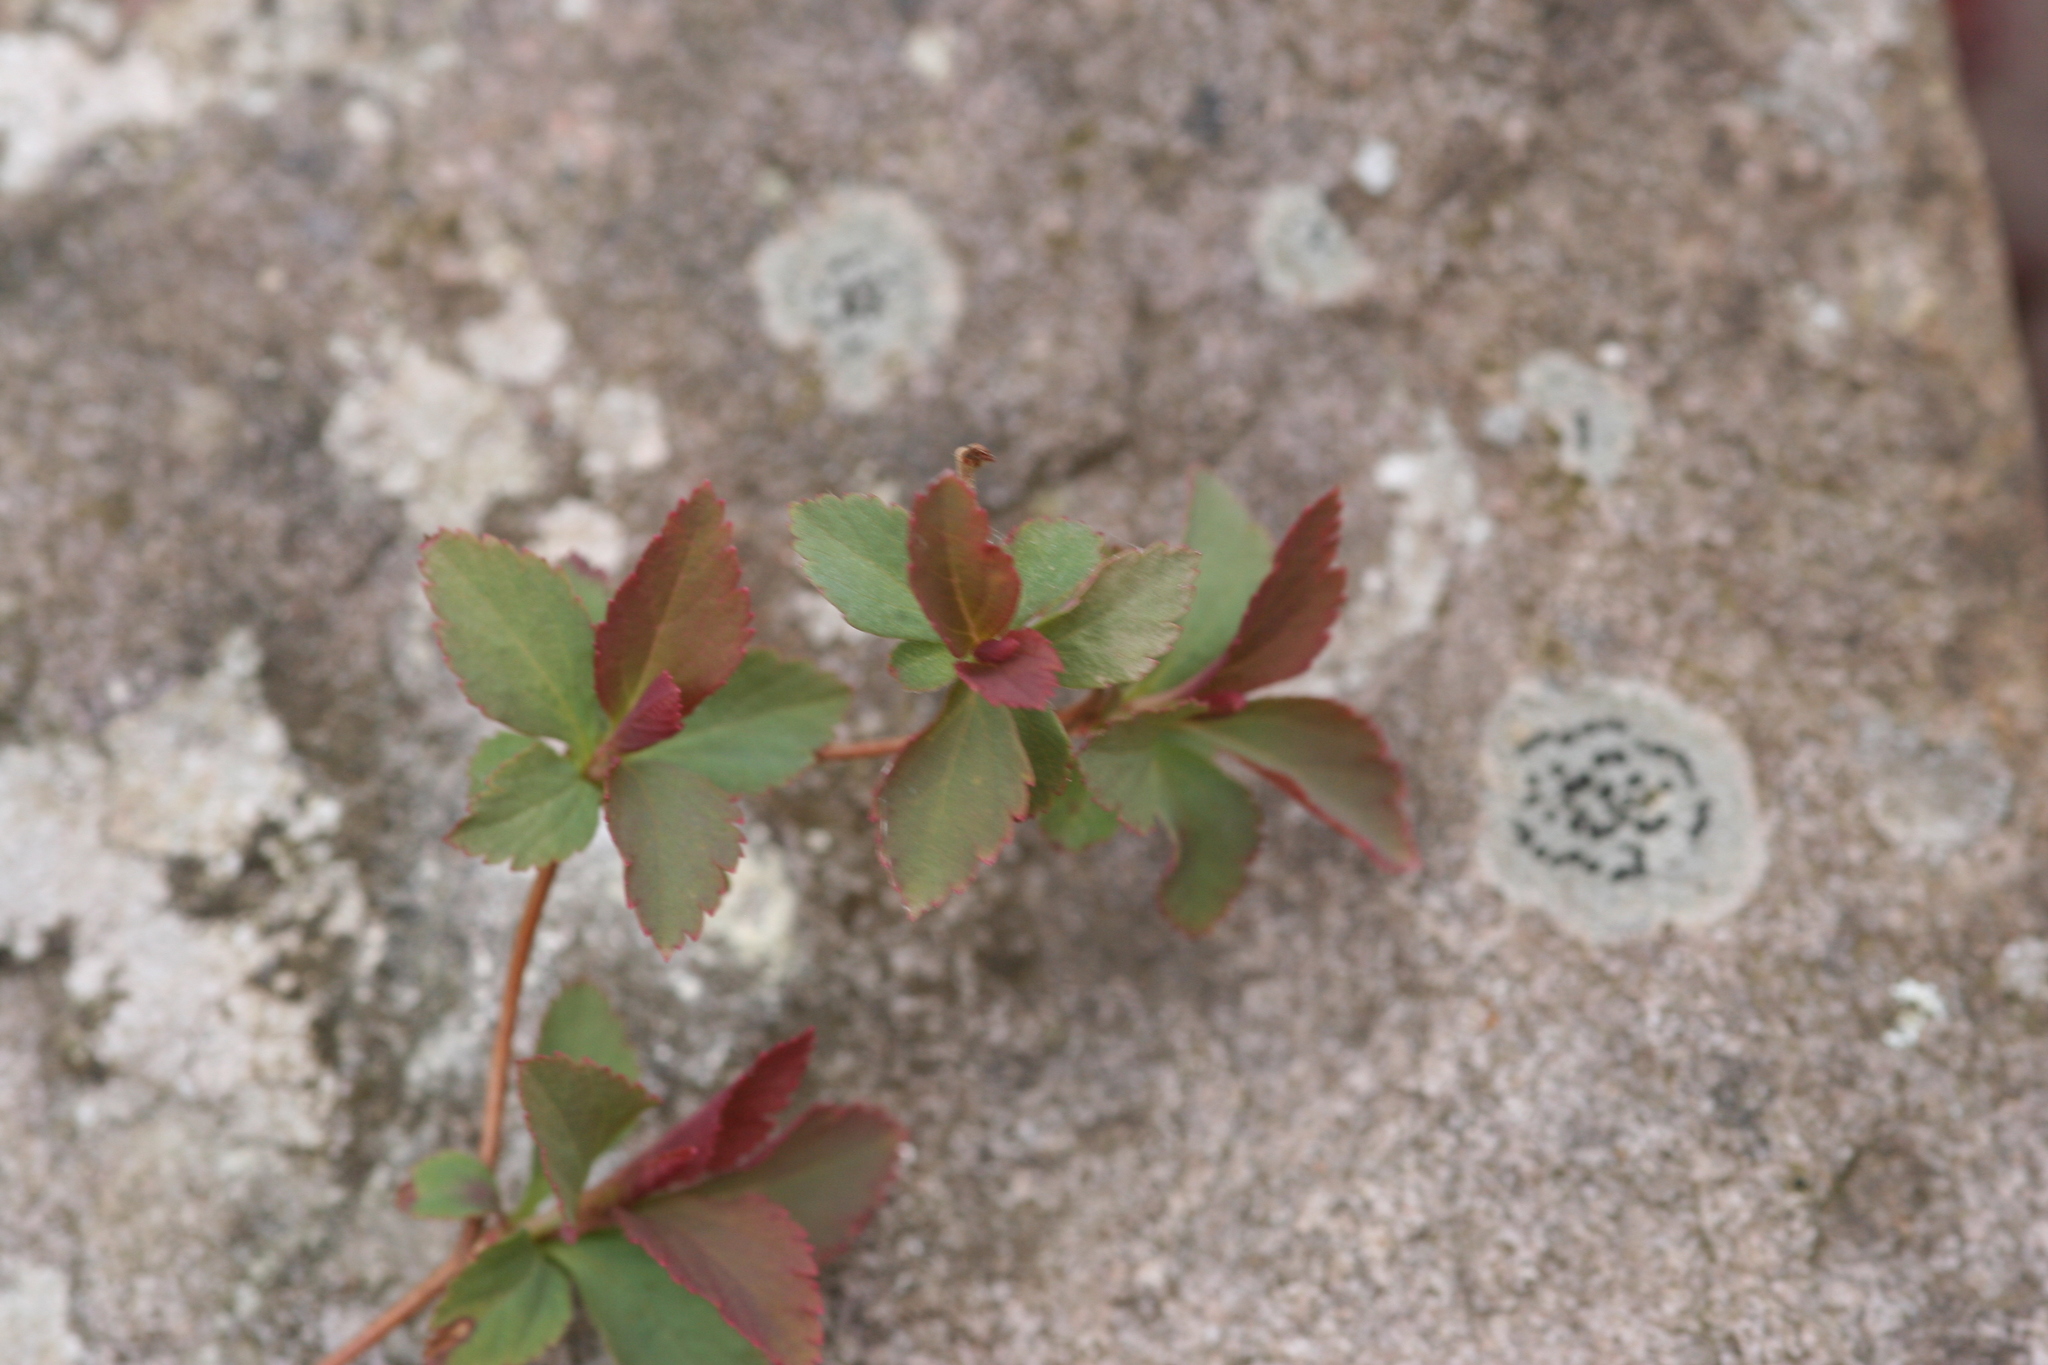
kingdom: Plantae
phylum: Tracheophyta
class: Magnoliopsida
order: Rosales
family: Rosaceae
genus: Spiraea
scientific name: Spiraea japonica
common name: Japanese spiraea
